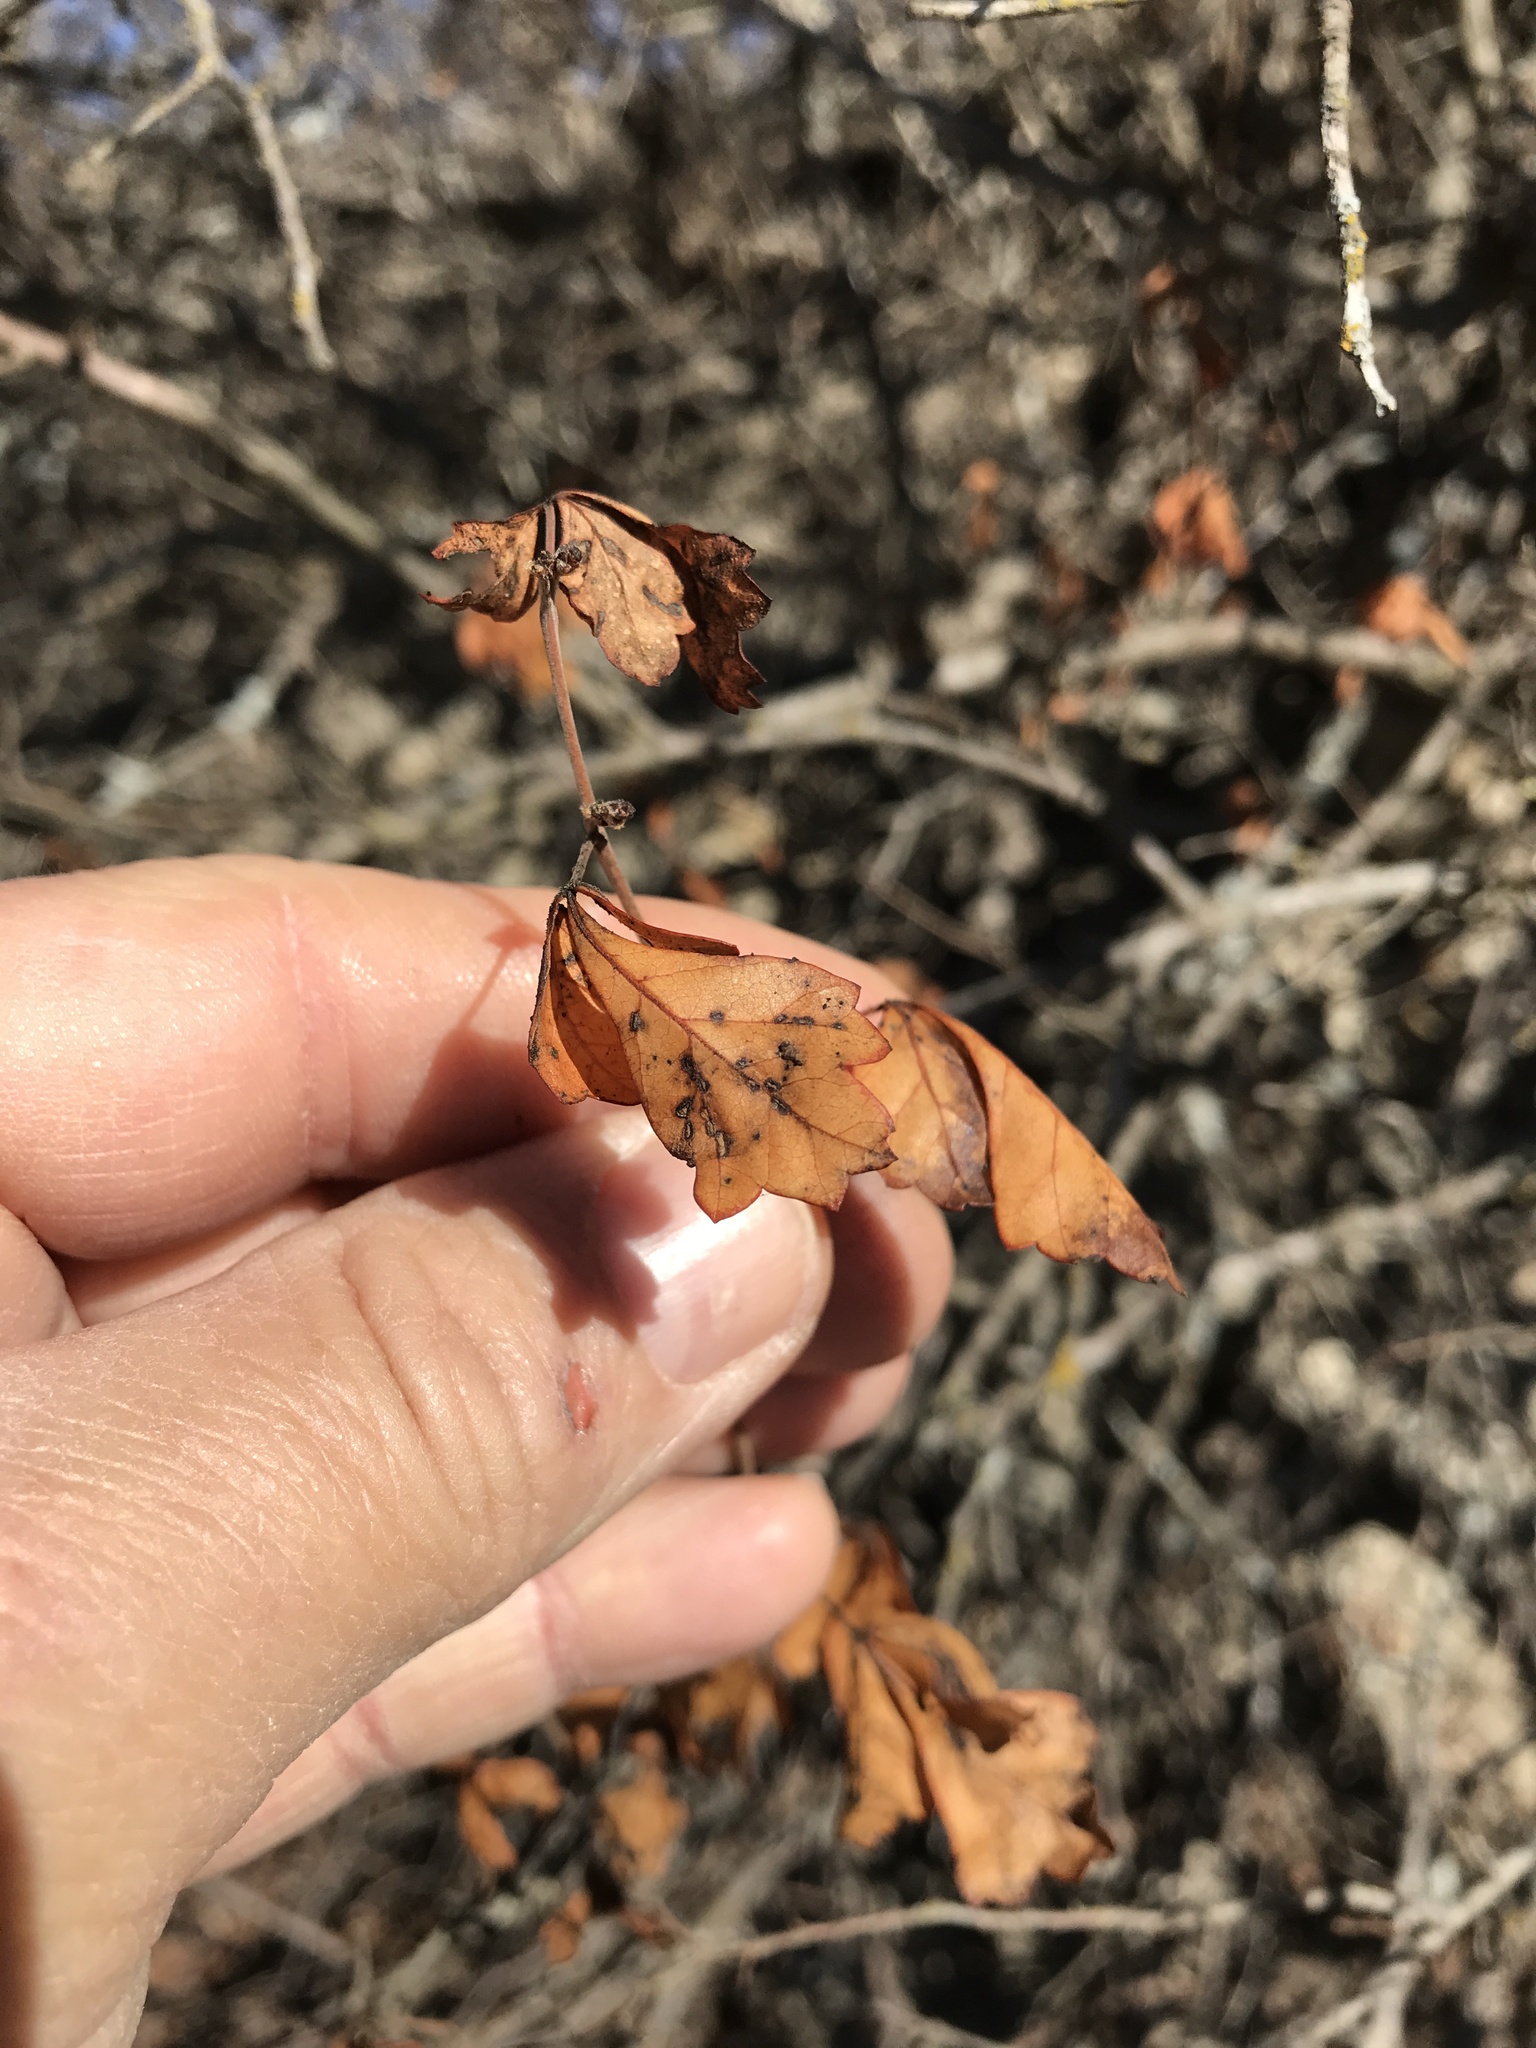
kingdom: Plantae
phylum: Tracheophyta
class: Magnoliopsida
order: Sapindales
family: Anacardiaceae
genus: Rhus
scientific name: Rhus aromatica
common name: Aromatic sumac
